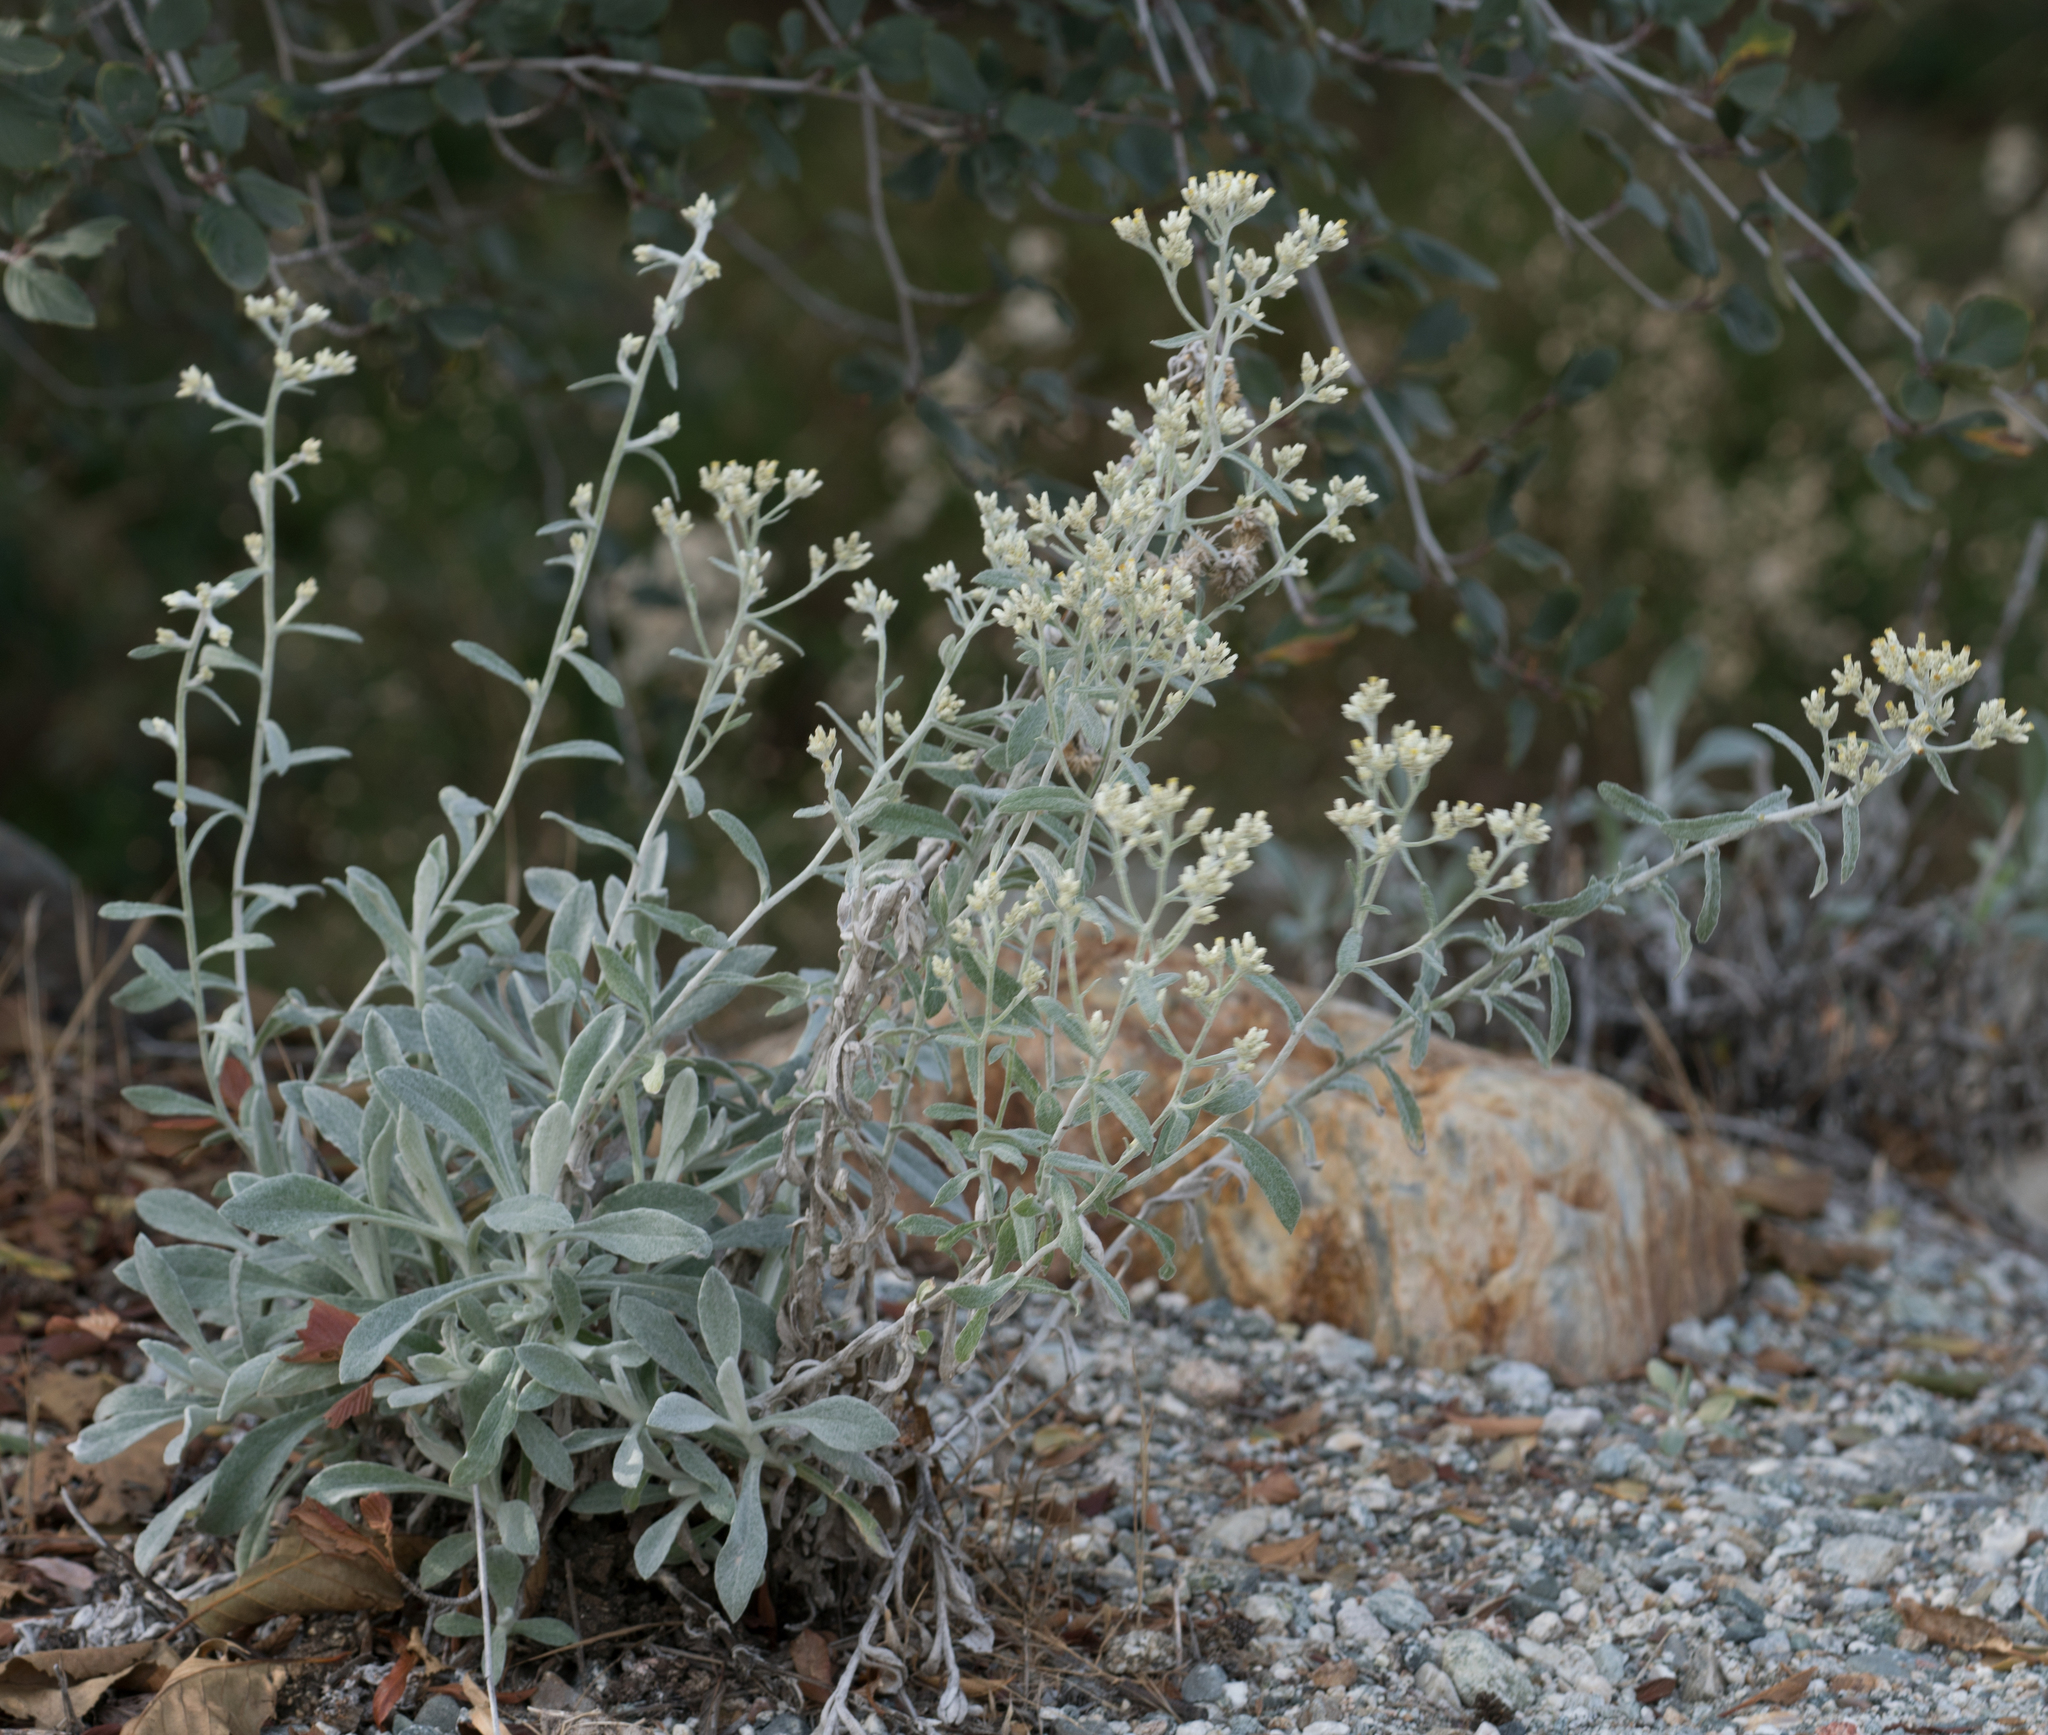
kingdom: Plantae
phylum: Tracheophyta
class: Magnoliopsida
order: Asterales
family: Asteraceae
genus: Pseudognaphalium
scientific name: Pseudognaphalium microcephalum
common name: San diego rabbit-tobacco
